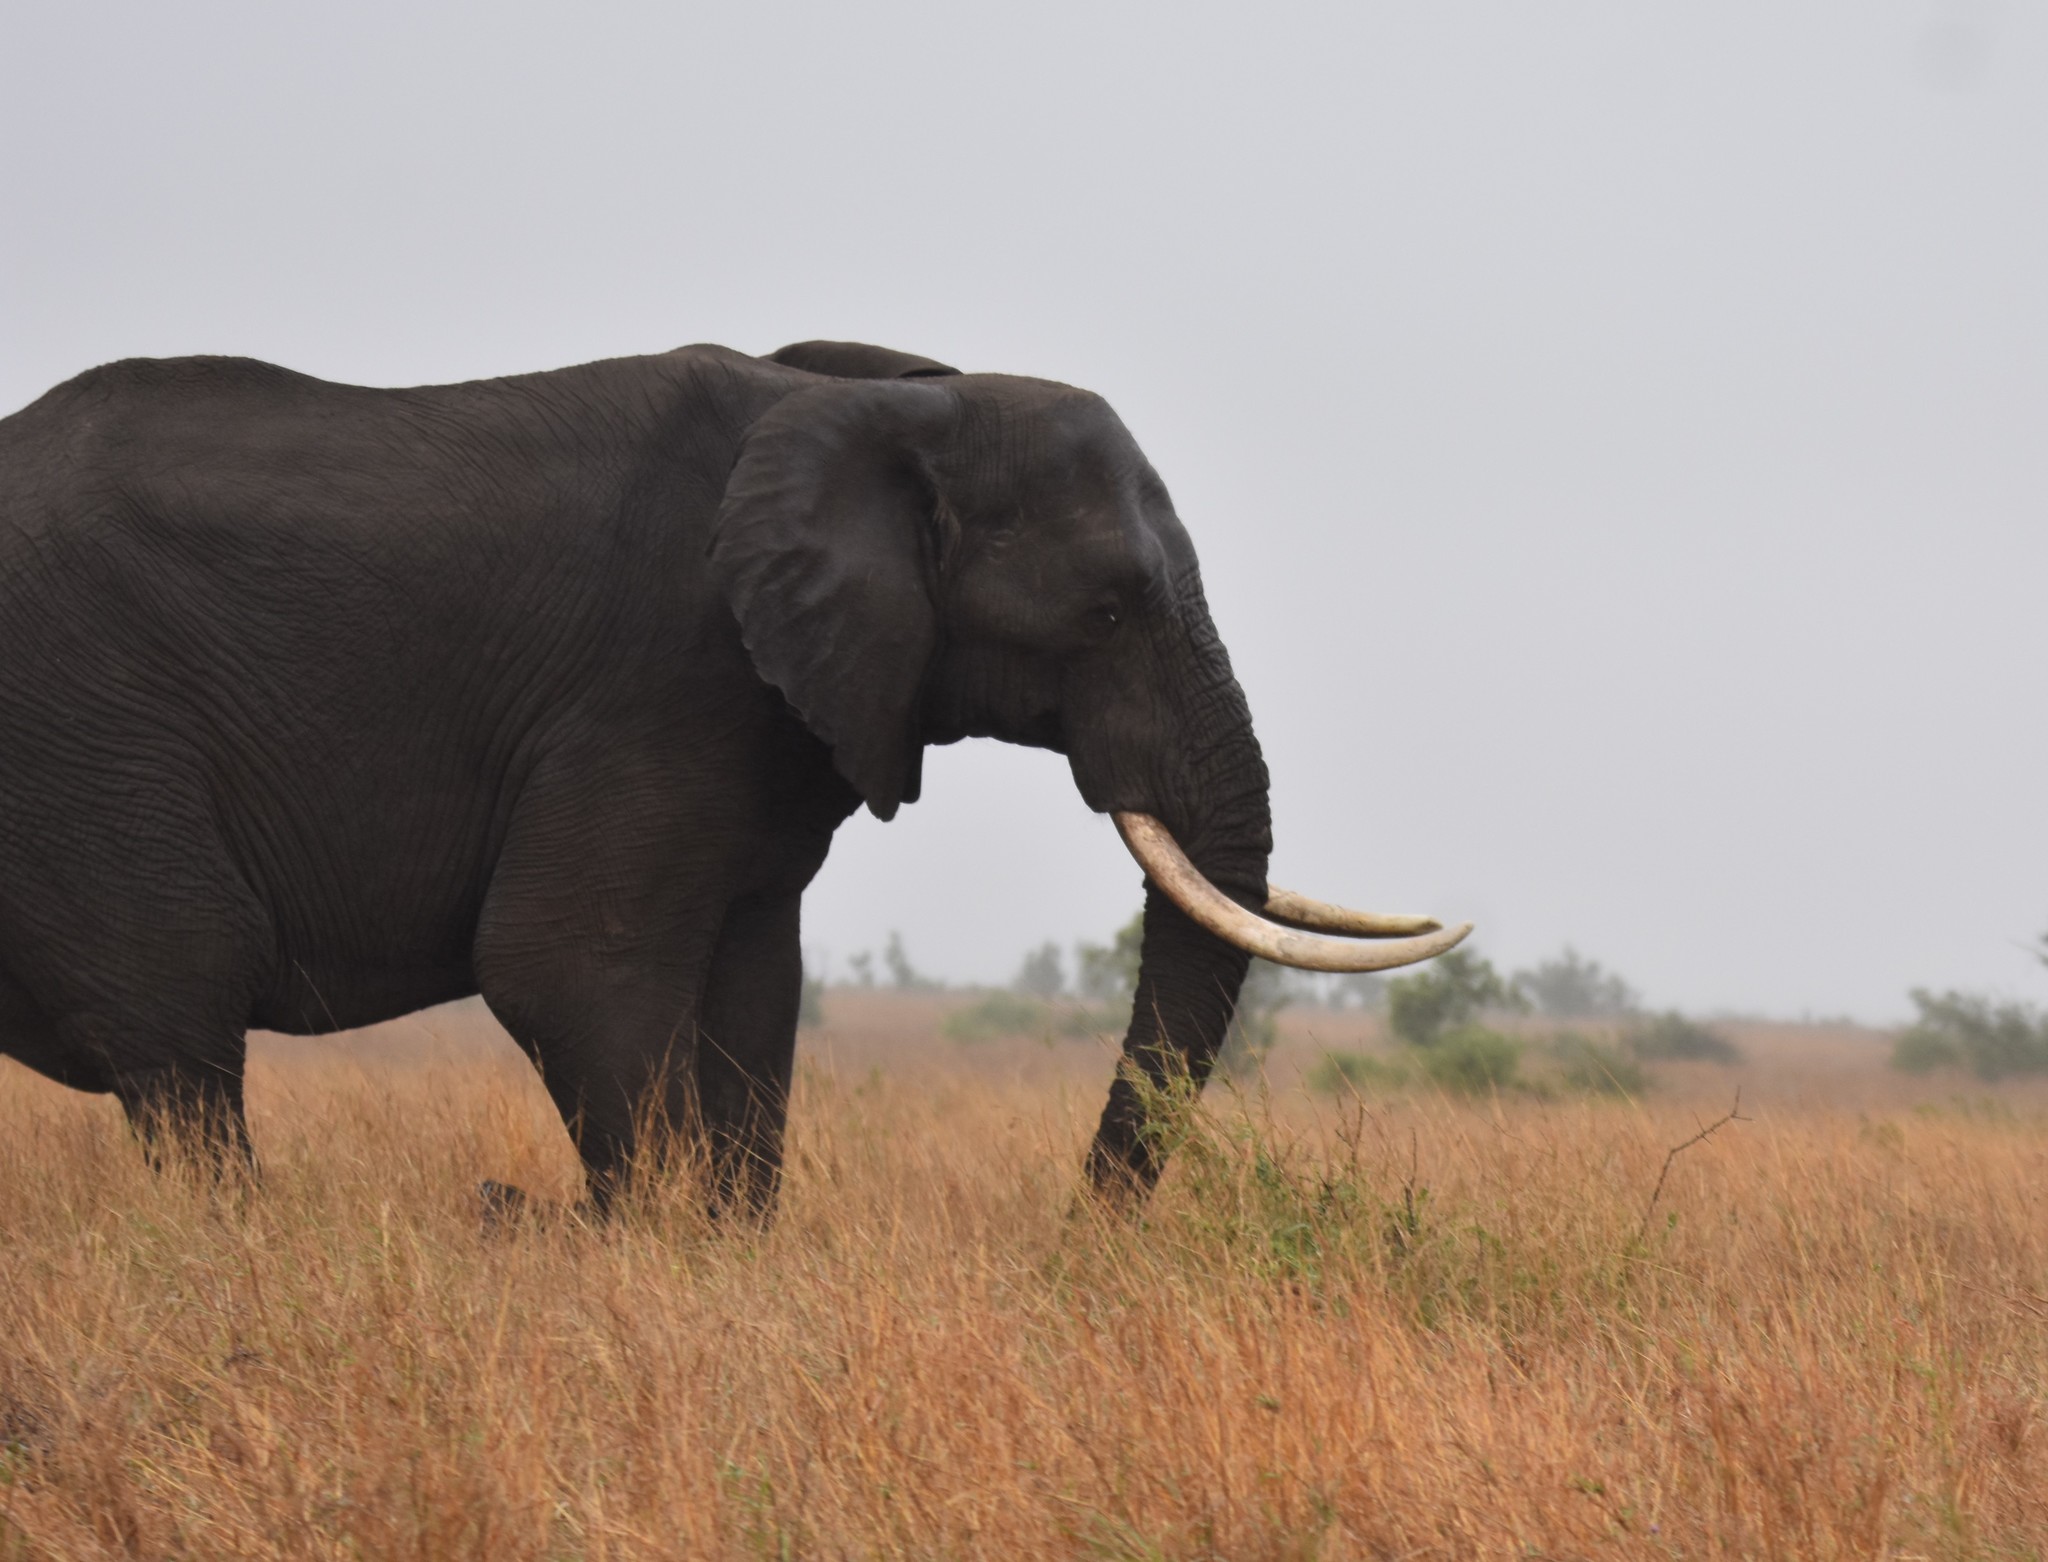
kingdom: Animalia
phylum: Chordata
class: Mammalia
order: Proboscidea
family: Elephantidae
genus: Loxodonta
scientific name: Loxodonta africana
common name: African elephant
